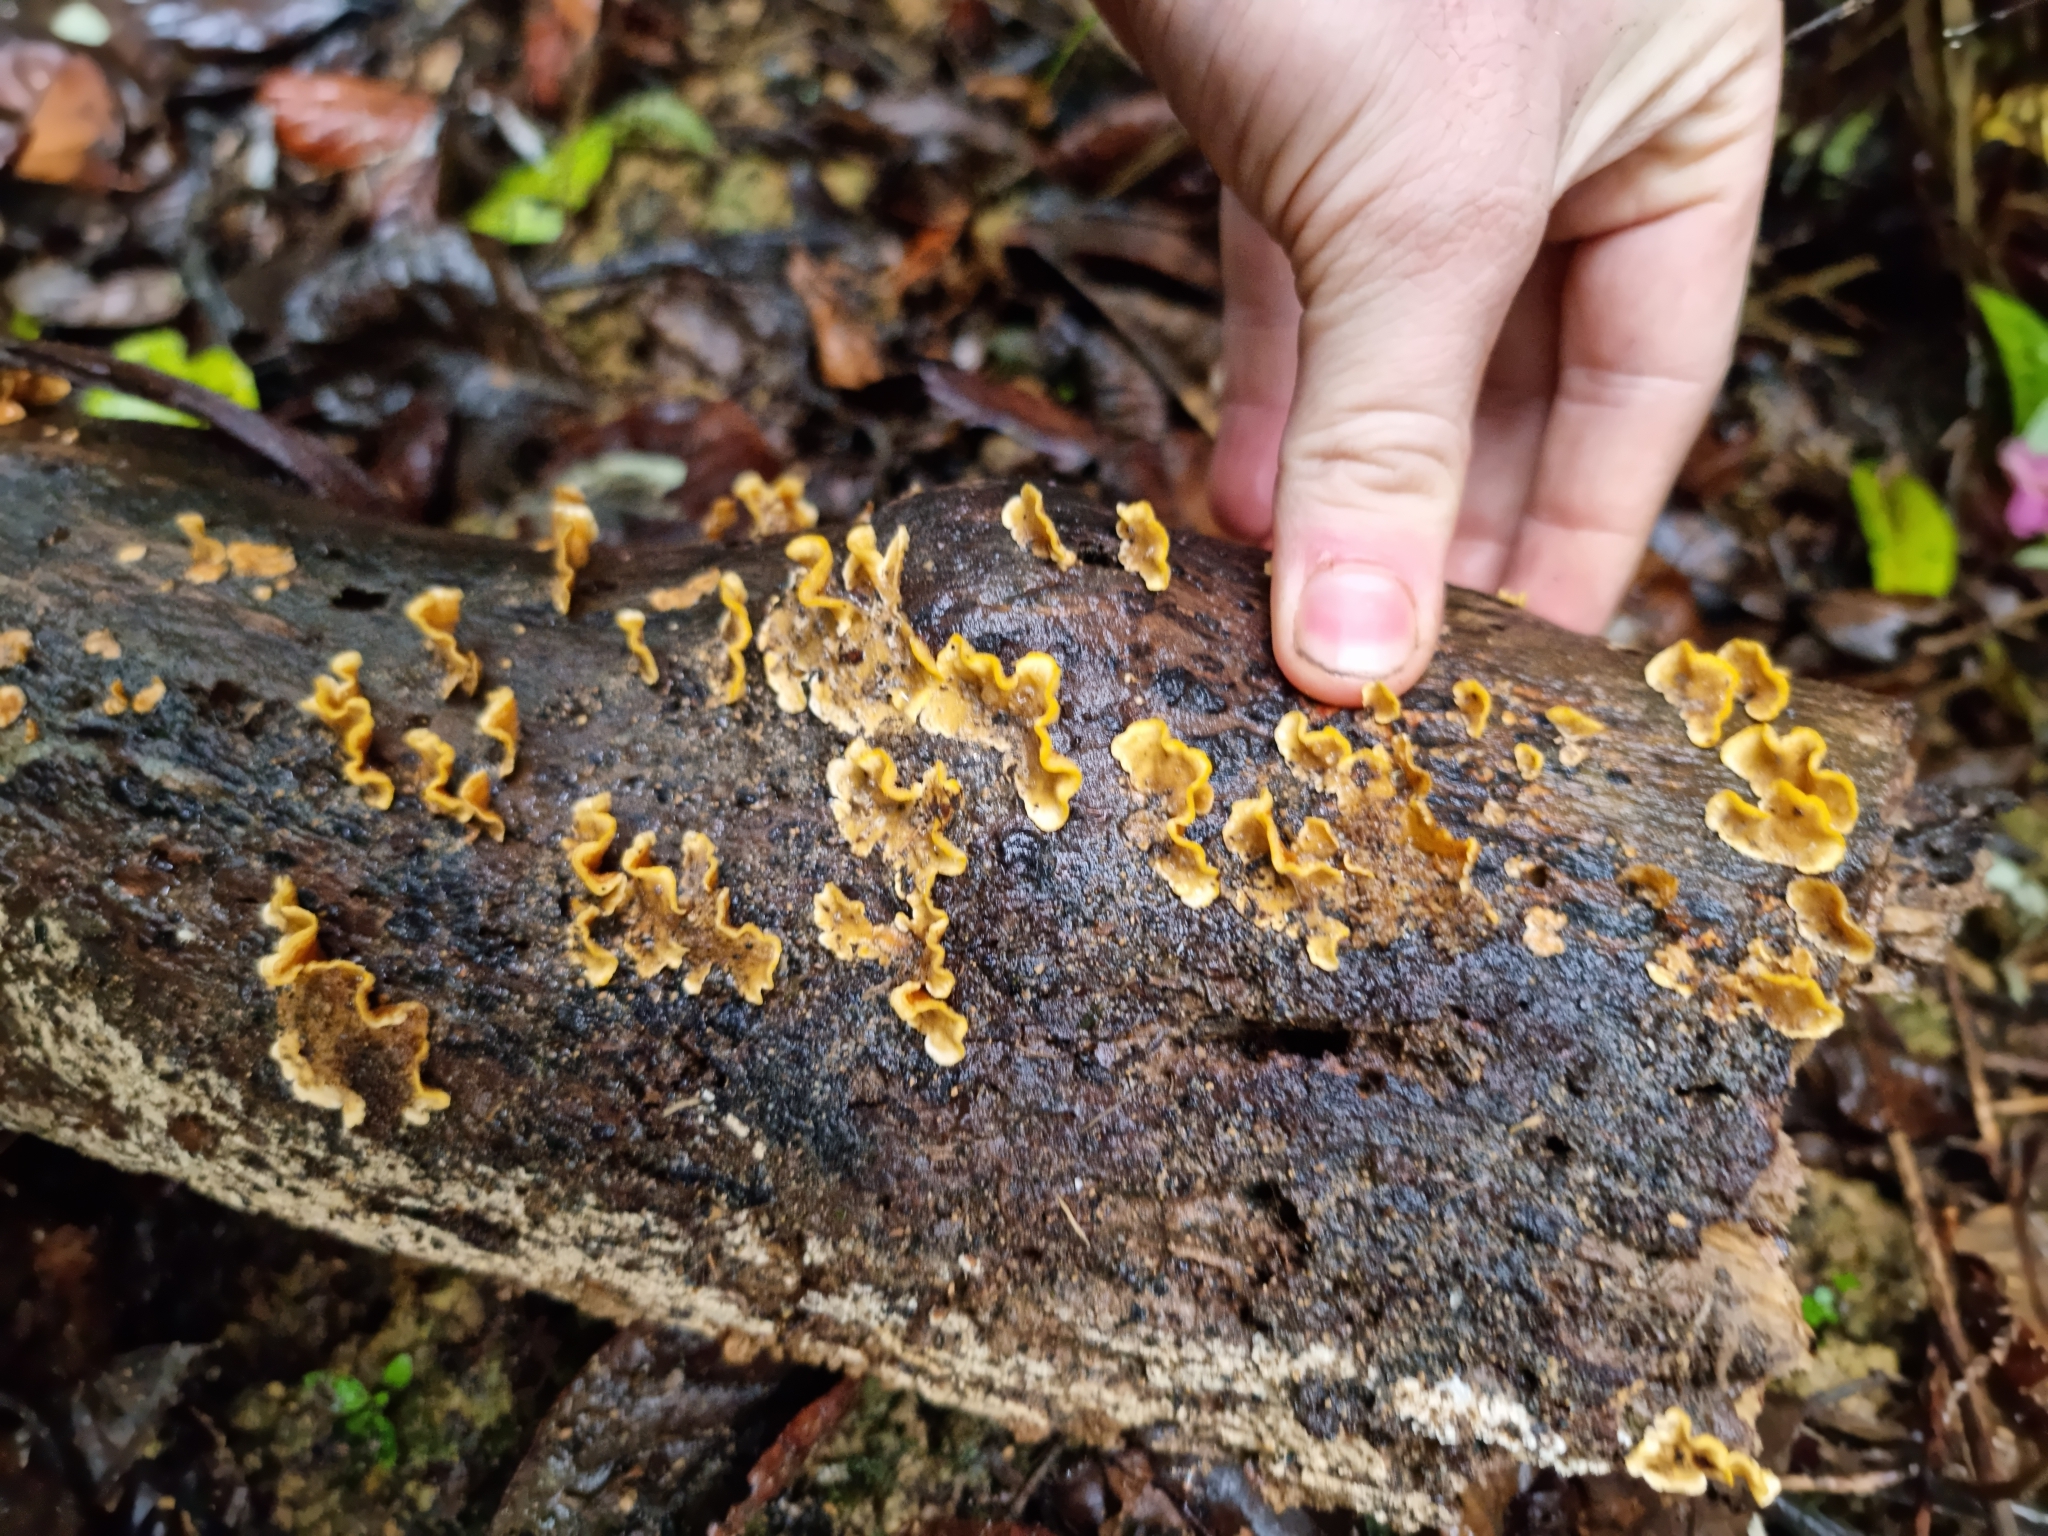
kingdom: Fungi
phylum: Basidiomycota
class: Agaricomycetes
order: Russulales
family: Stereaceae
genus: Stereum
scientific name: Stereum hirsutum
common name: Hairy curtain crust
